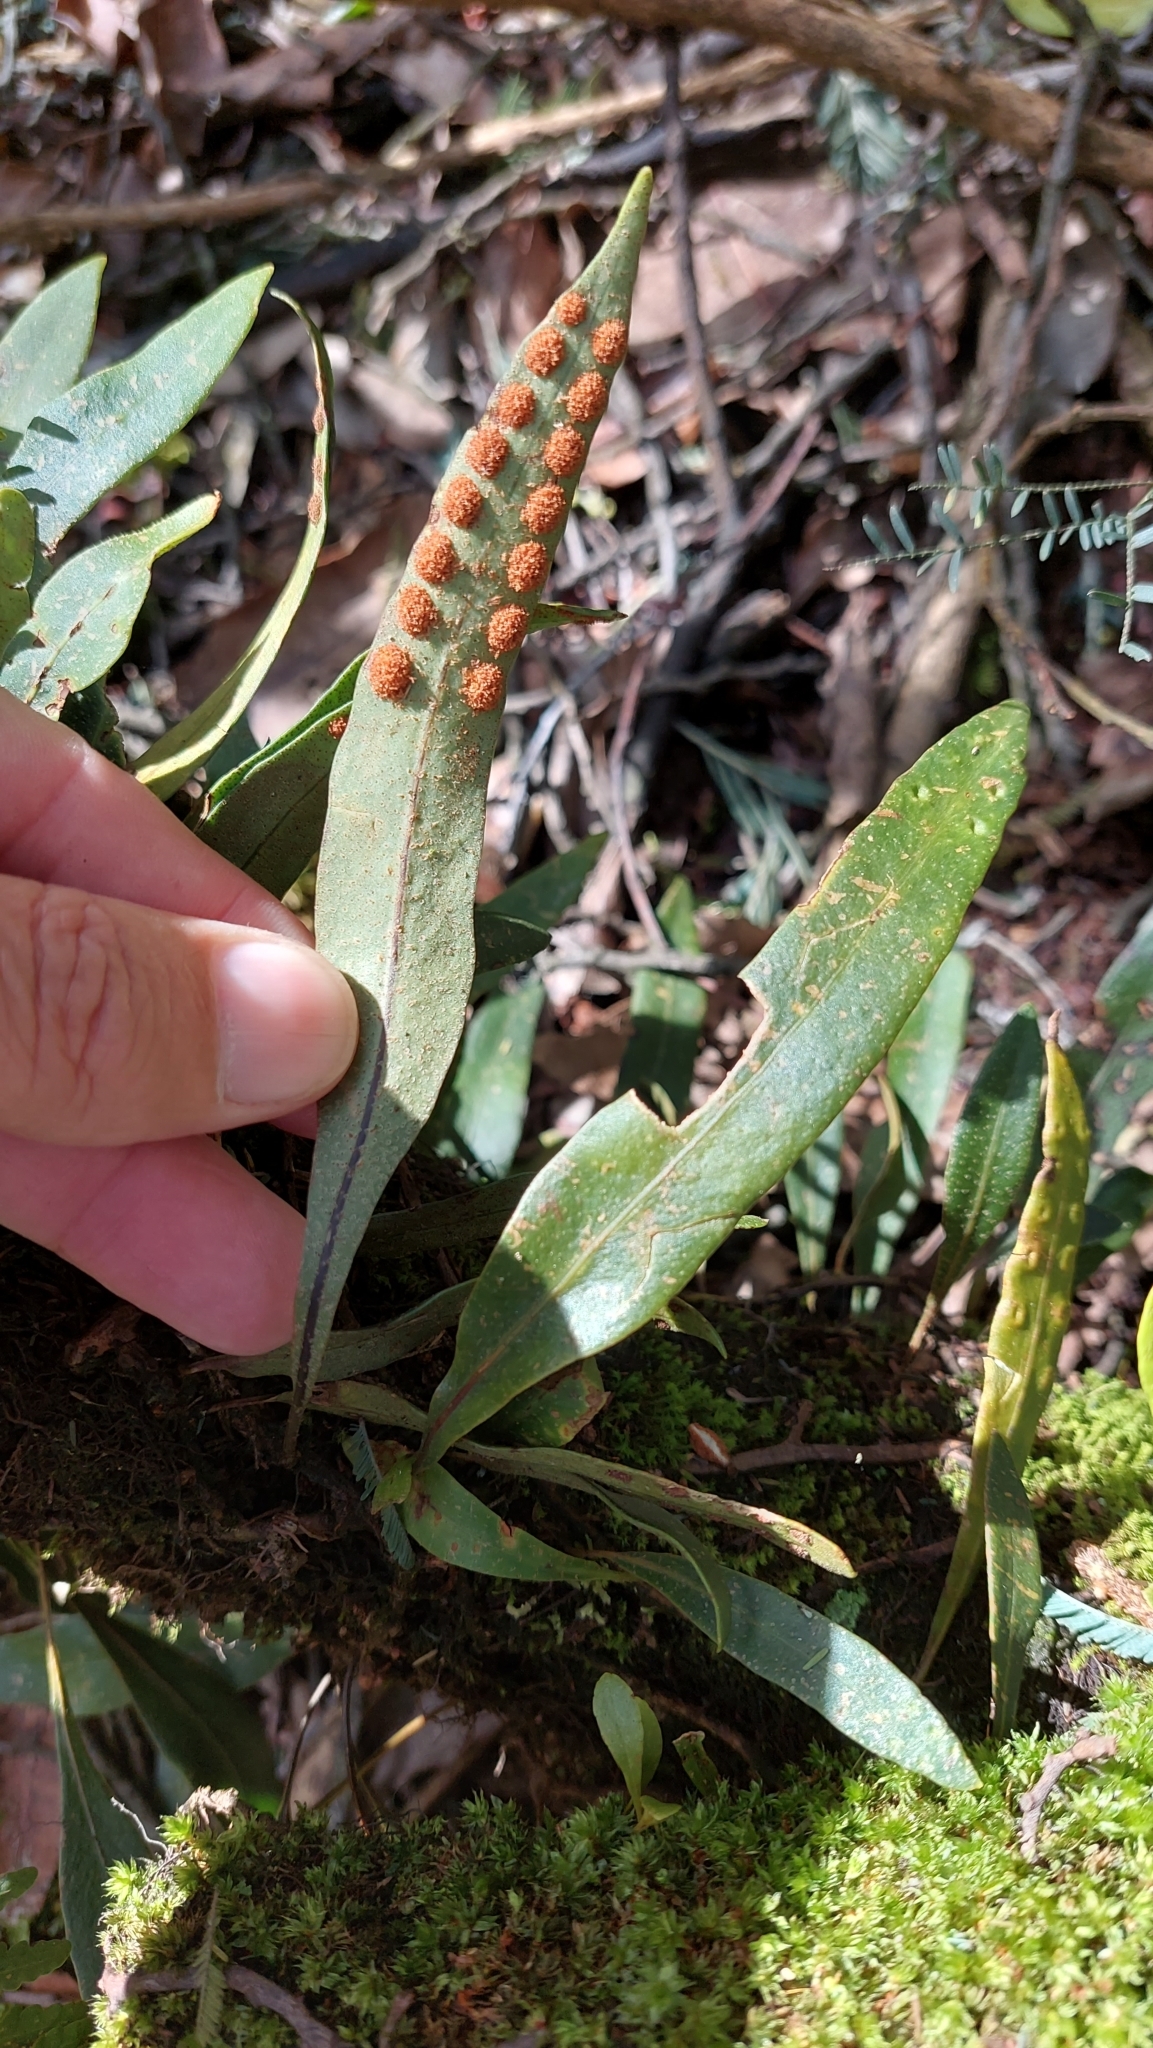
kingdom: Plantae
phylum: Tracheophyta
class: Polypodiopsida
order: Polypodiales
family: Polypodiaceae
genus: Pleopeltis
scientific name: Pleopeltis macrocarpa
